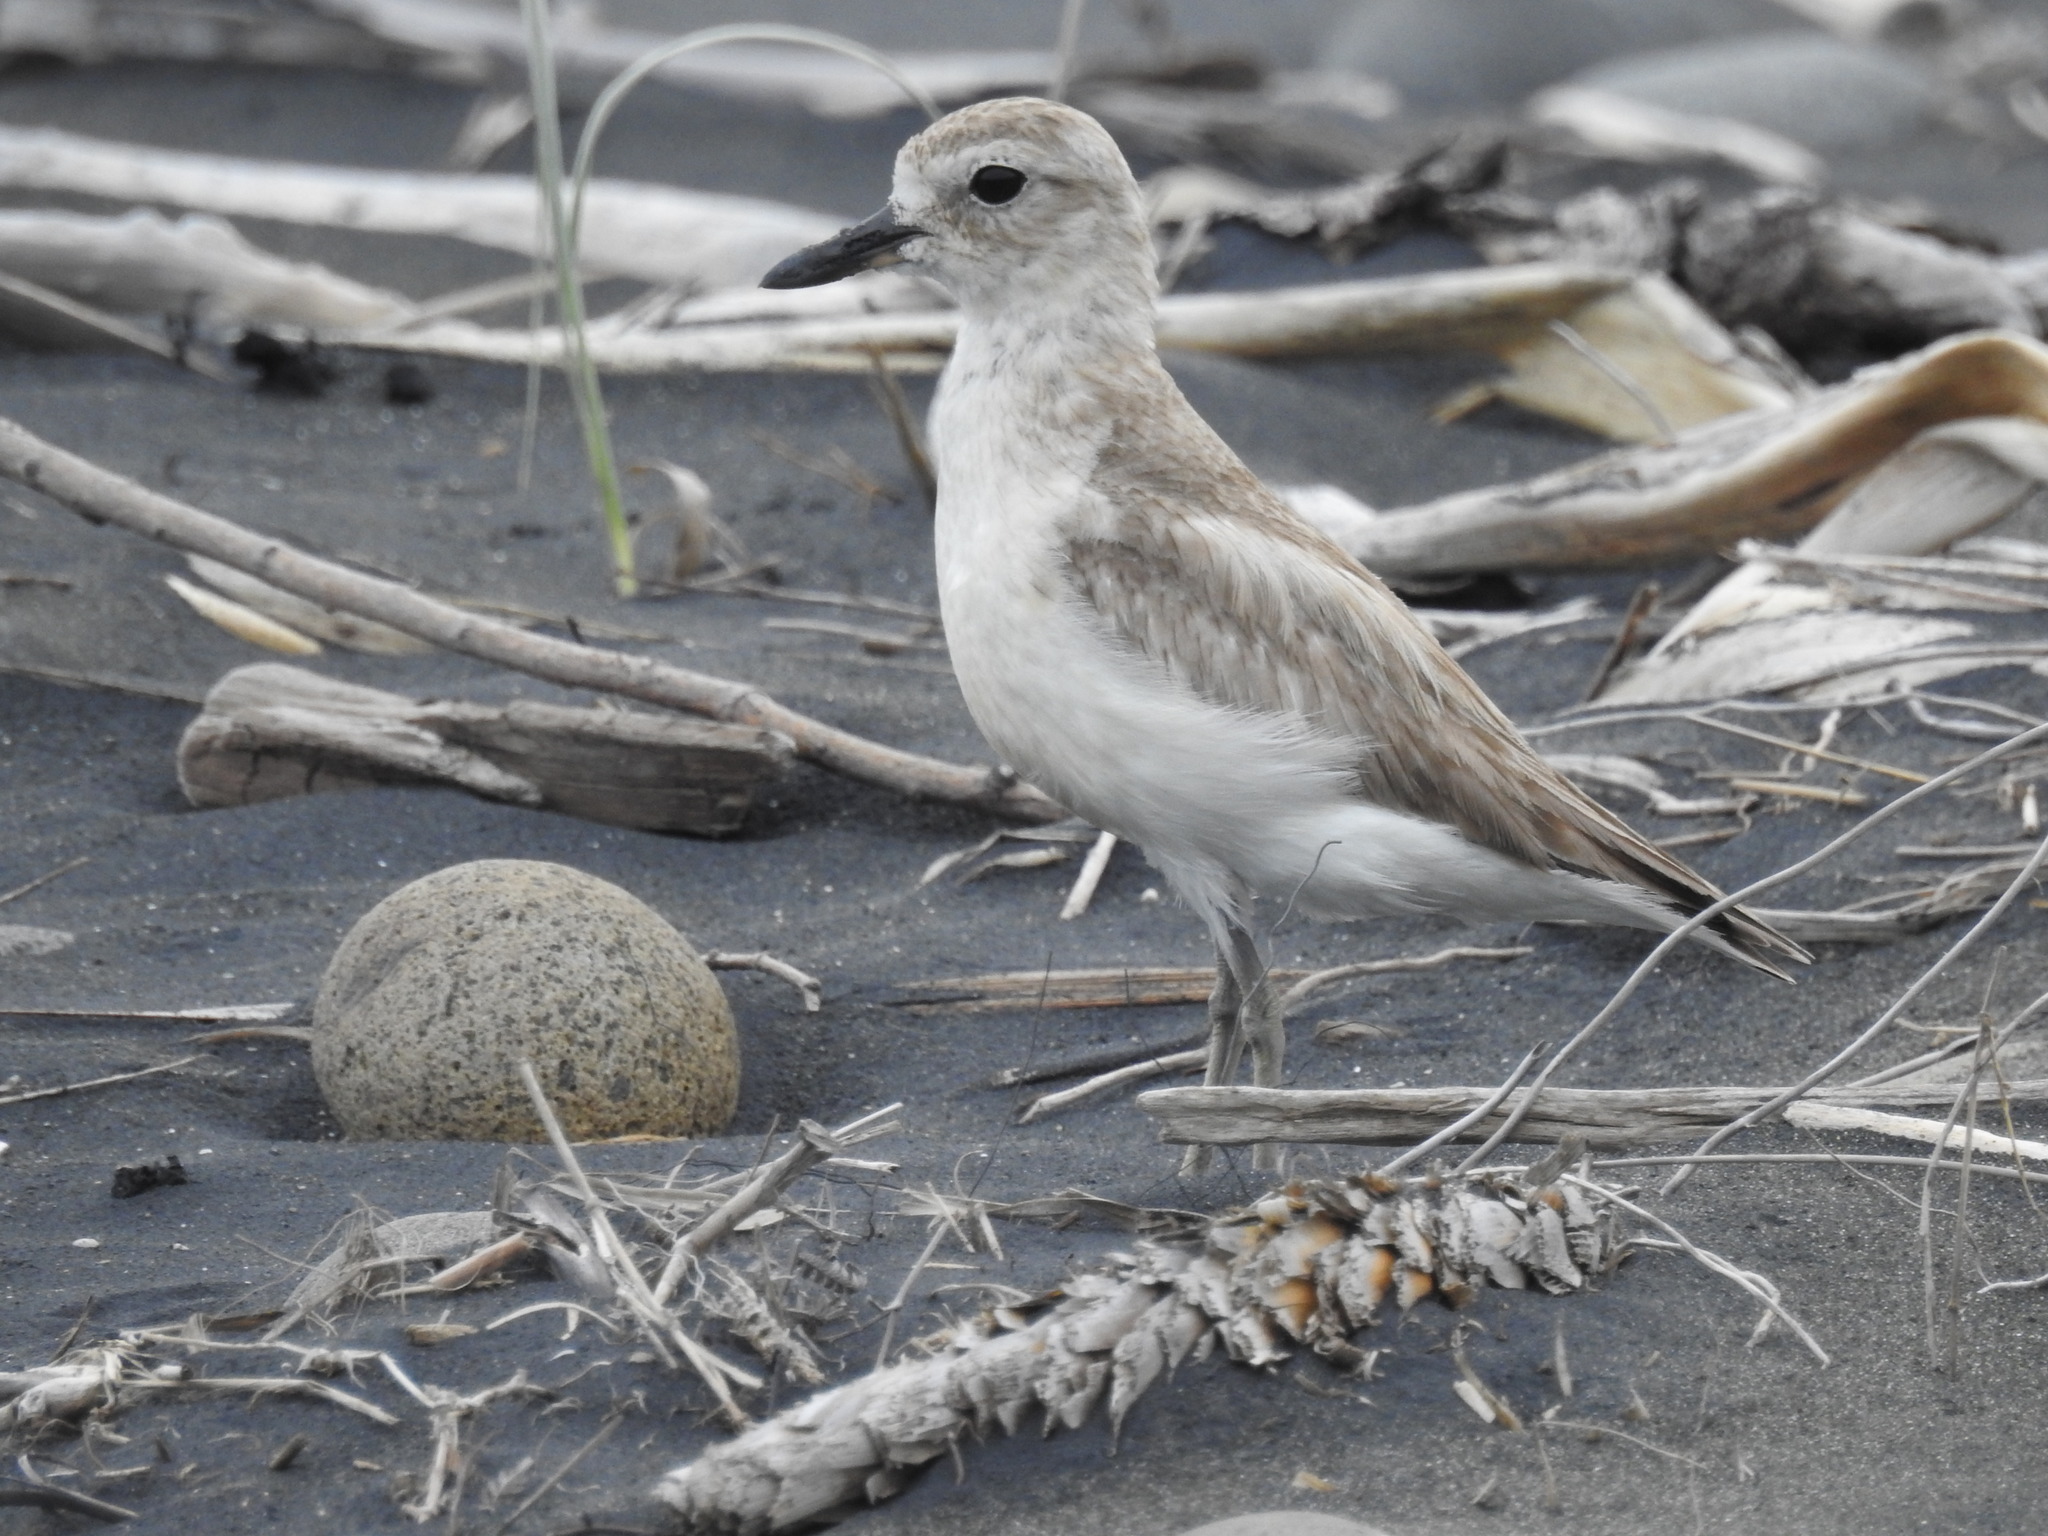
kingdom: Animalia
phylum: Chordata
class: Aves
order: Charadriiformes
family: Charadriidae
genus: Anarhynchus
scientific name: Anarhynchus
